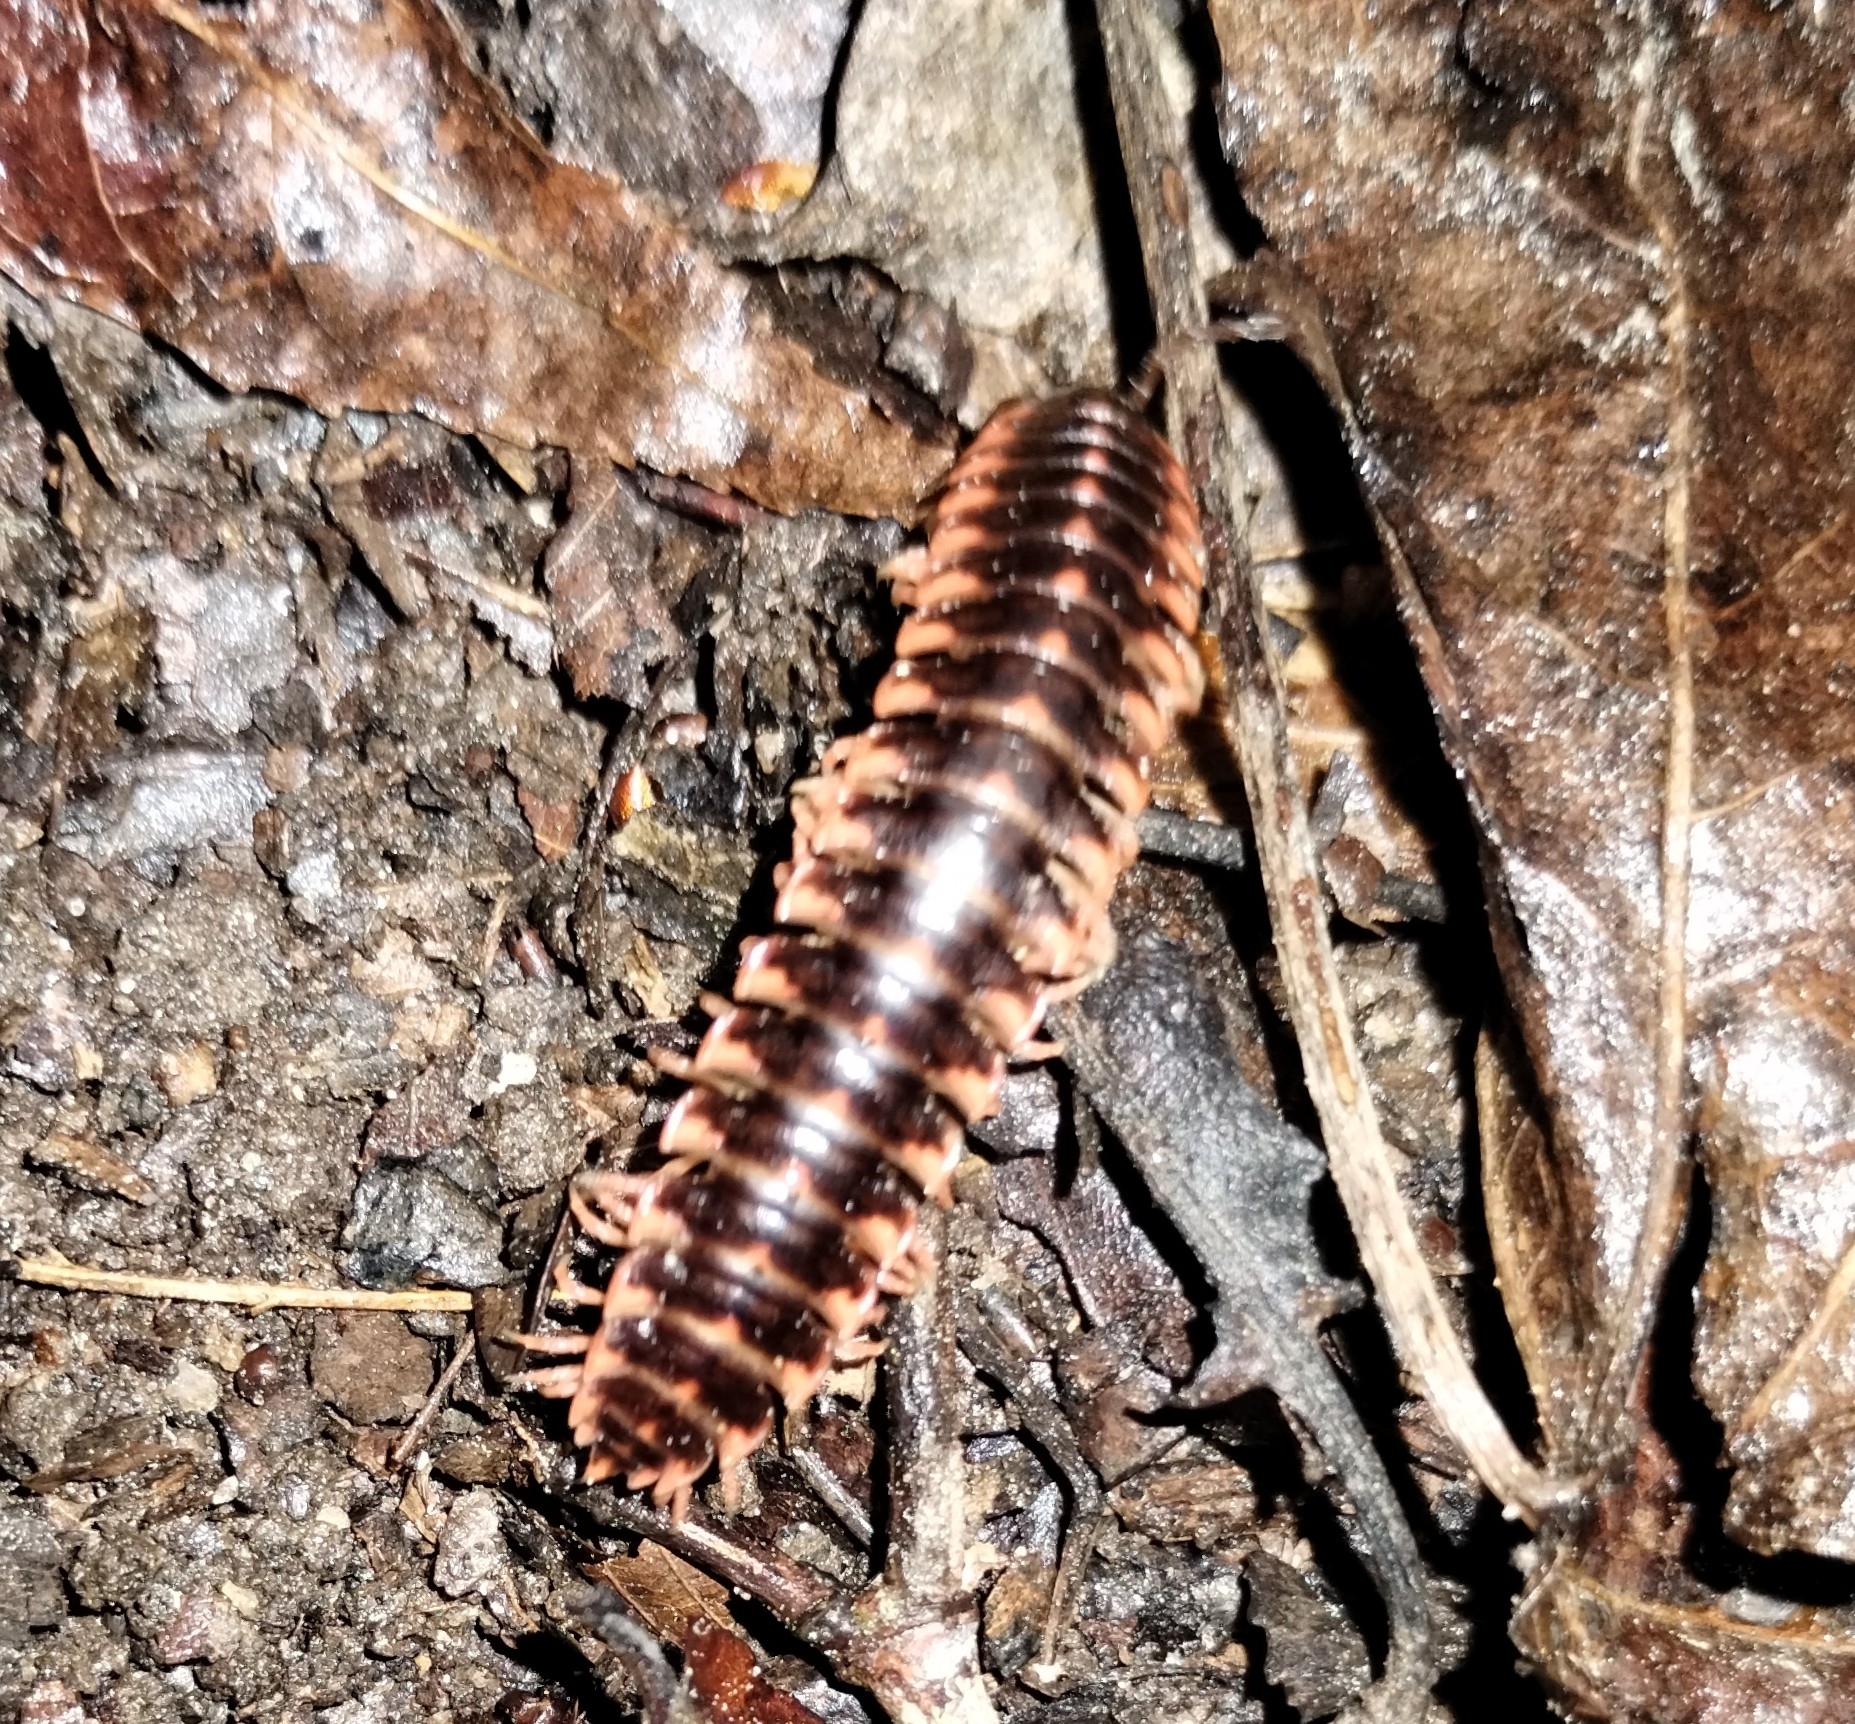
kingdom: Animalia
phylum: Arthropoda
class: Diplopoda
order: Polydesmida
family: Xystodesmidae
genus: Cherokia
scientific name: Cherokia georgiana
